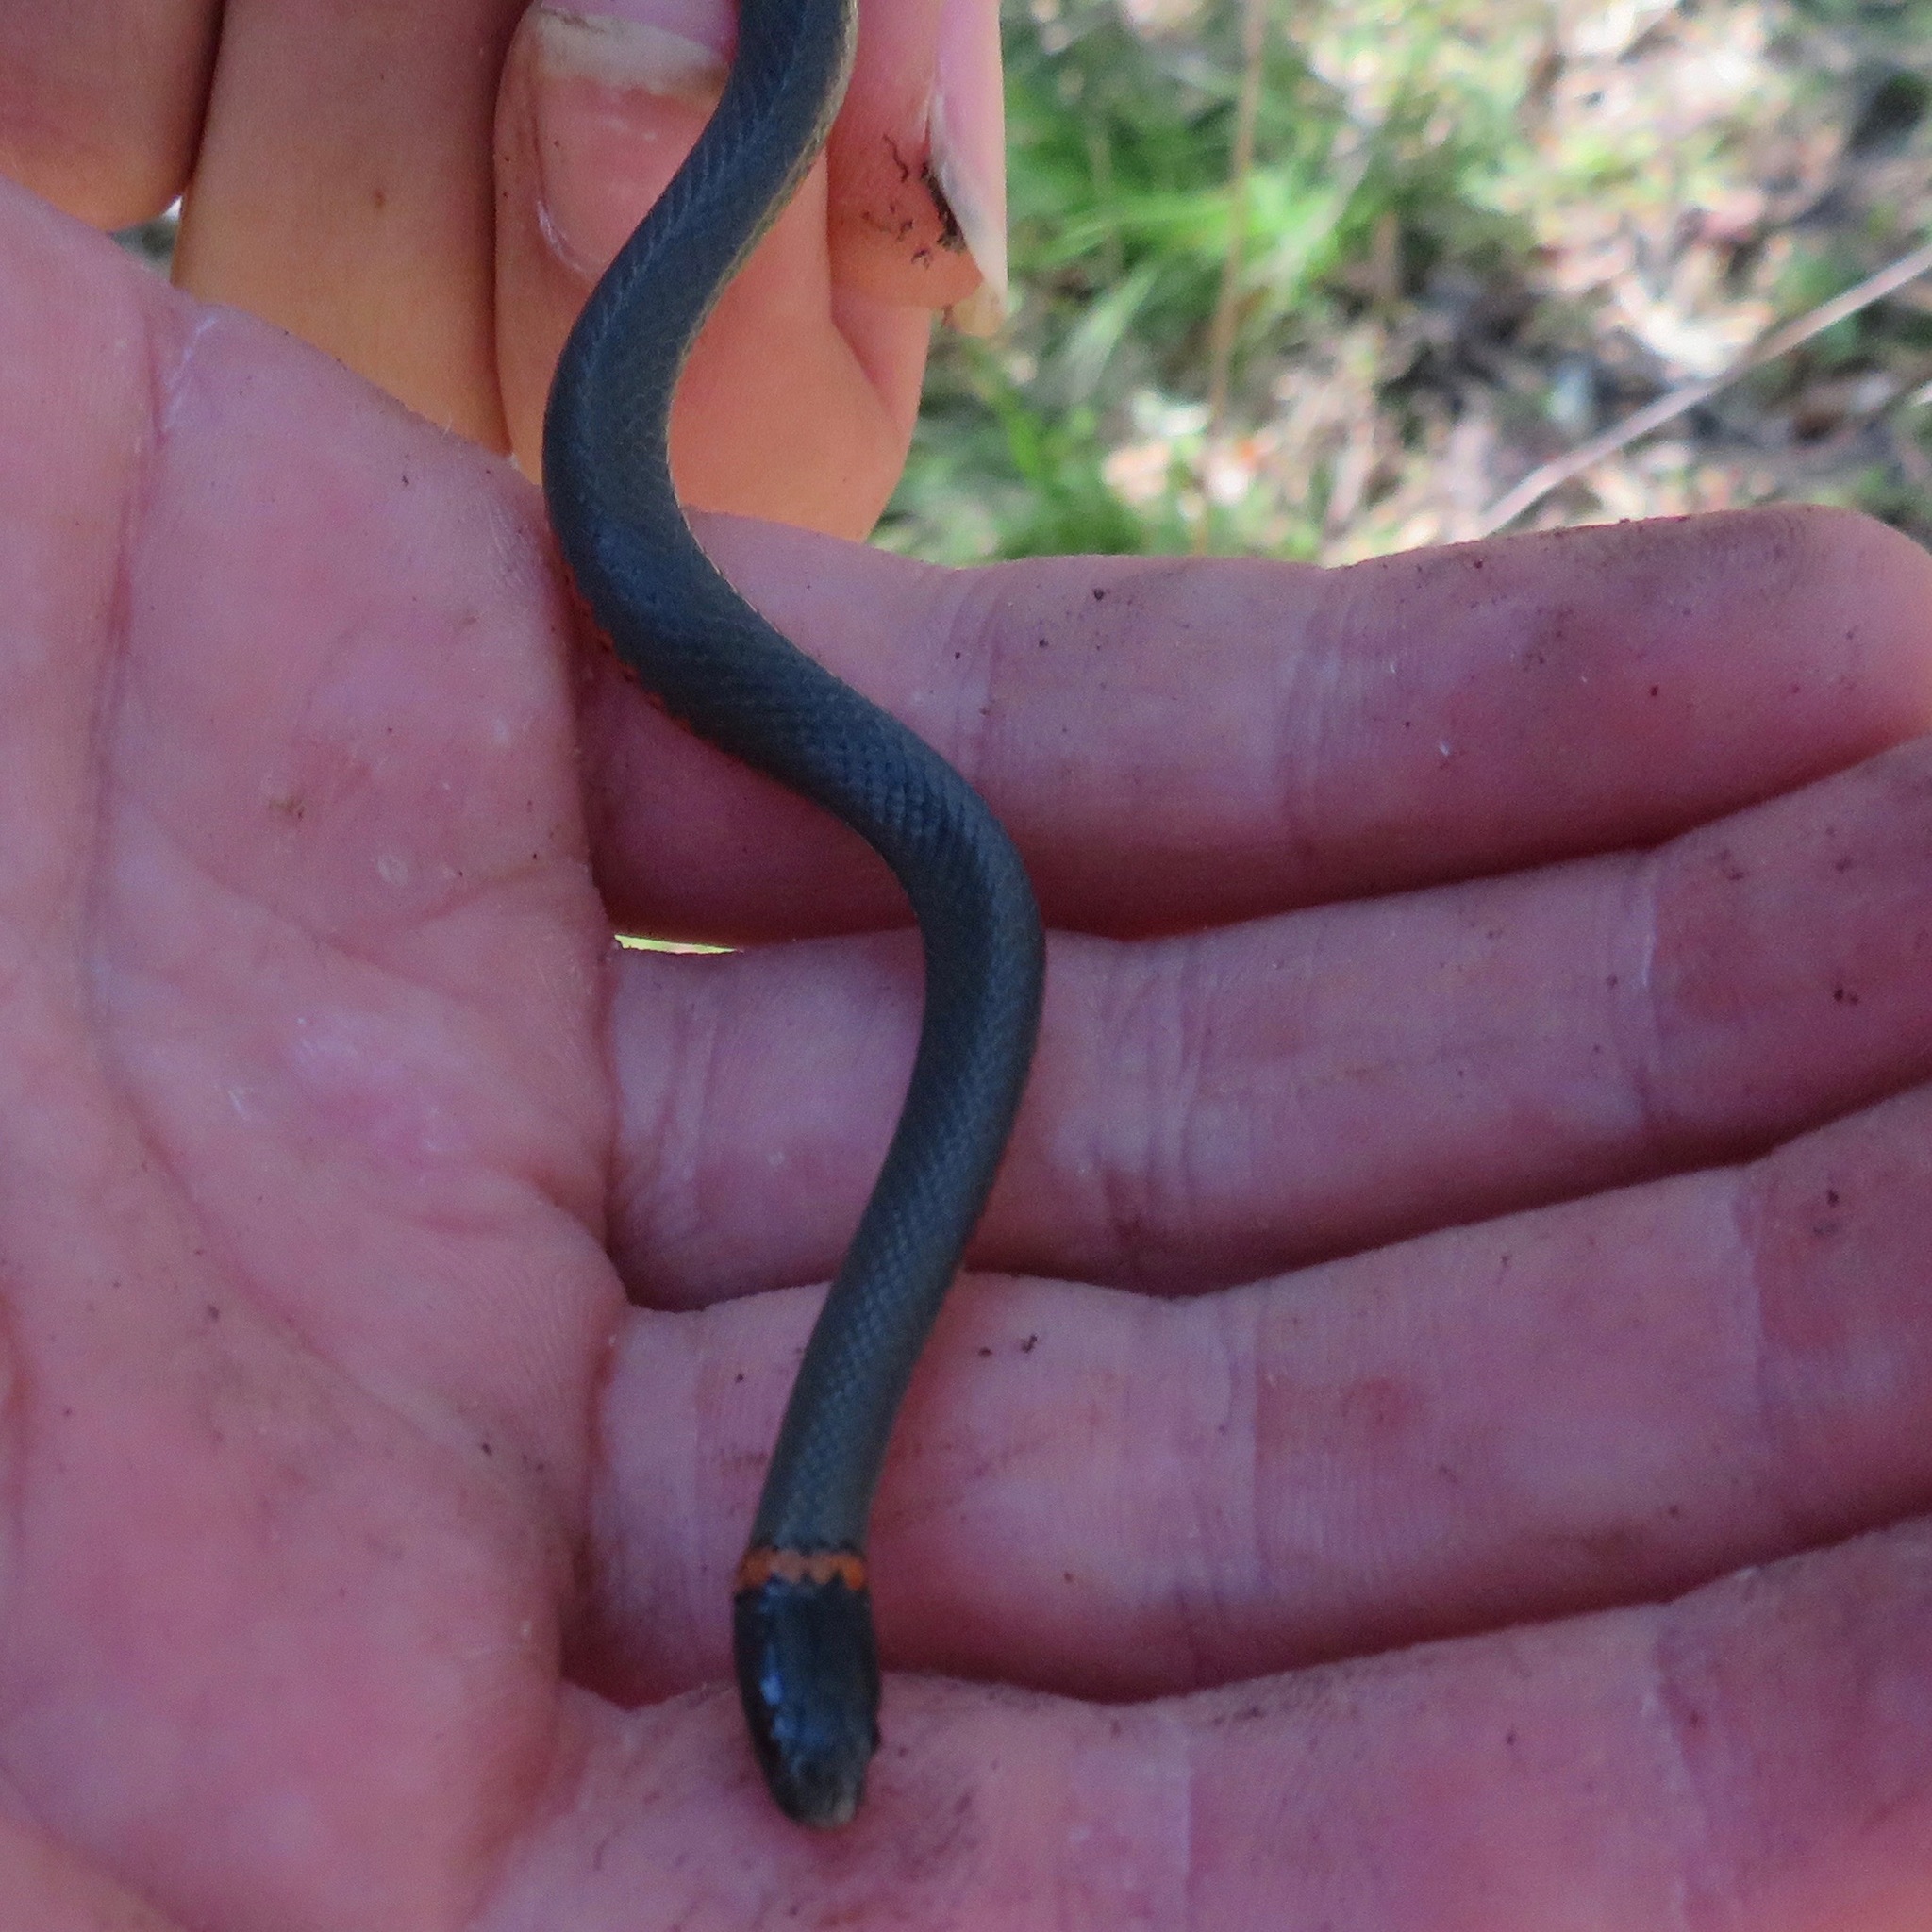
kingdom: Animalia
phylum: Chordata
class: Squamata
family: Colubridae
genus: Diadophis
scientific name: Diadophis punctatus
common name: Ringneck snake
